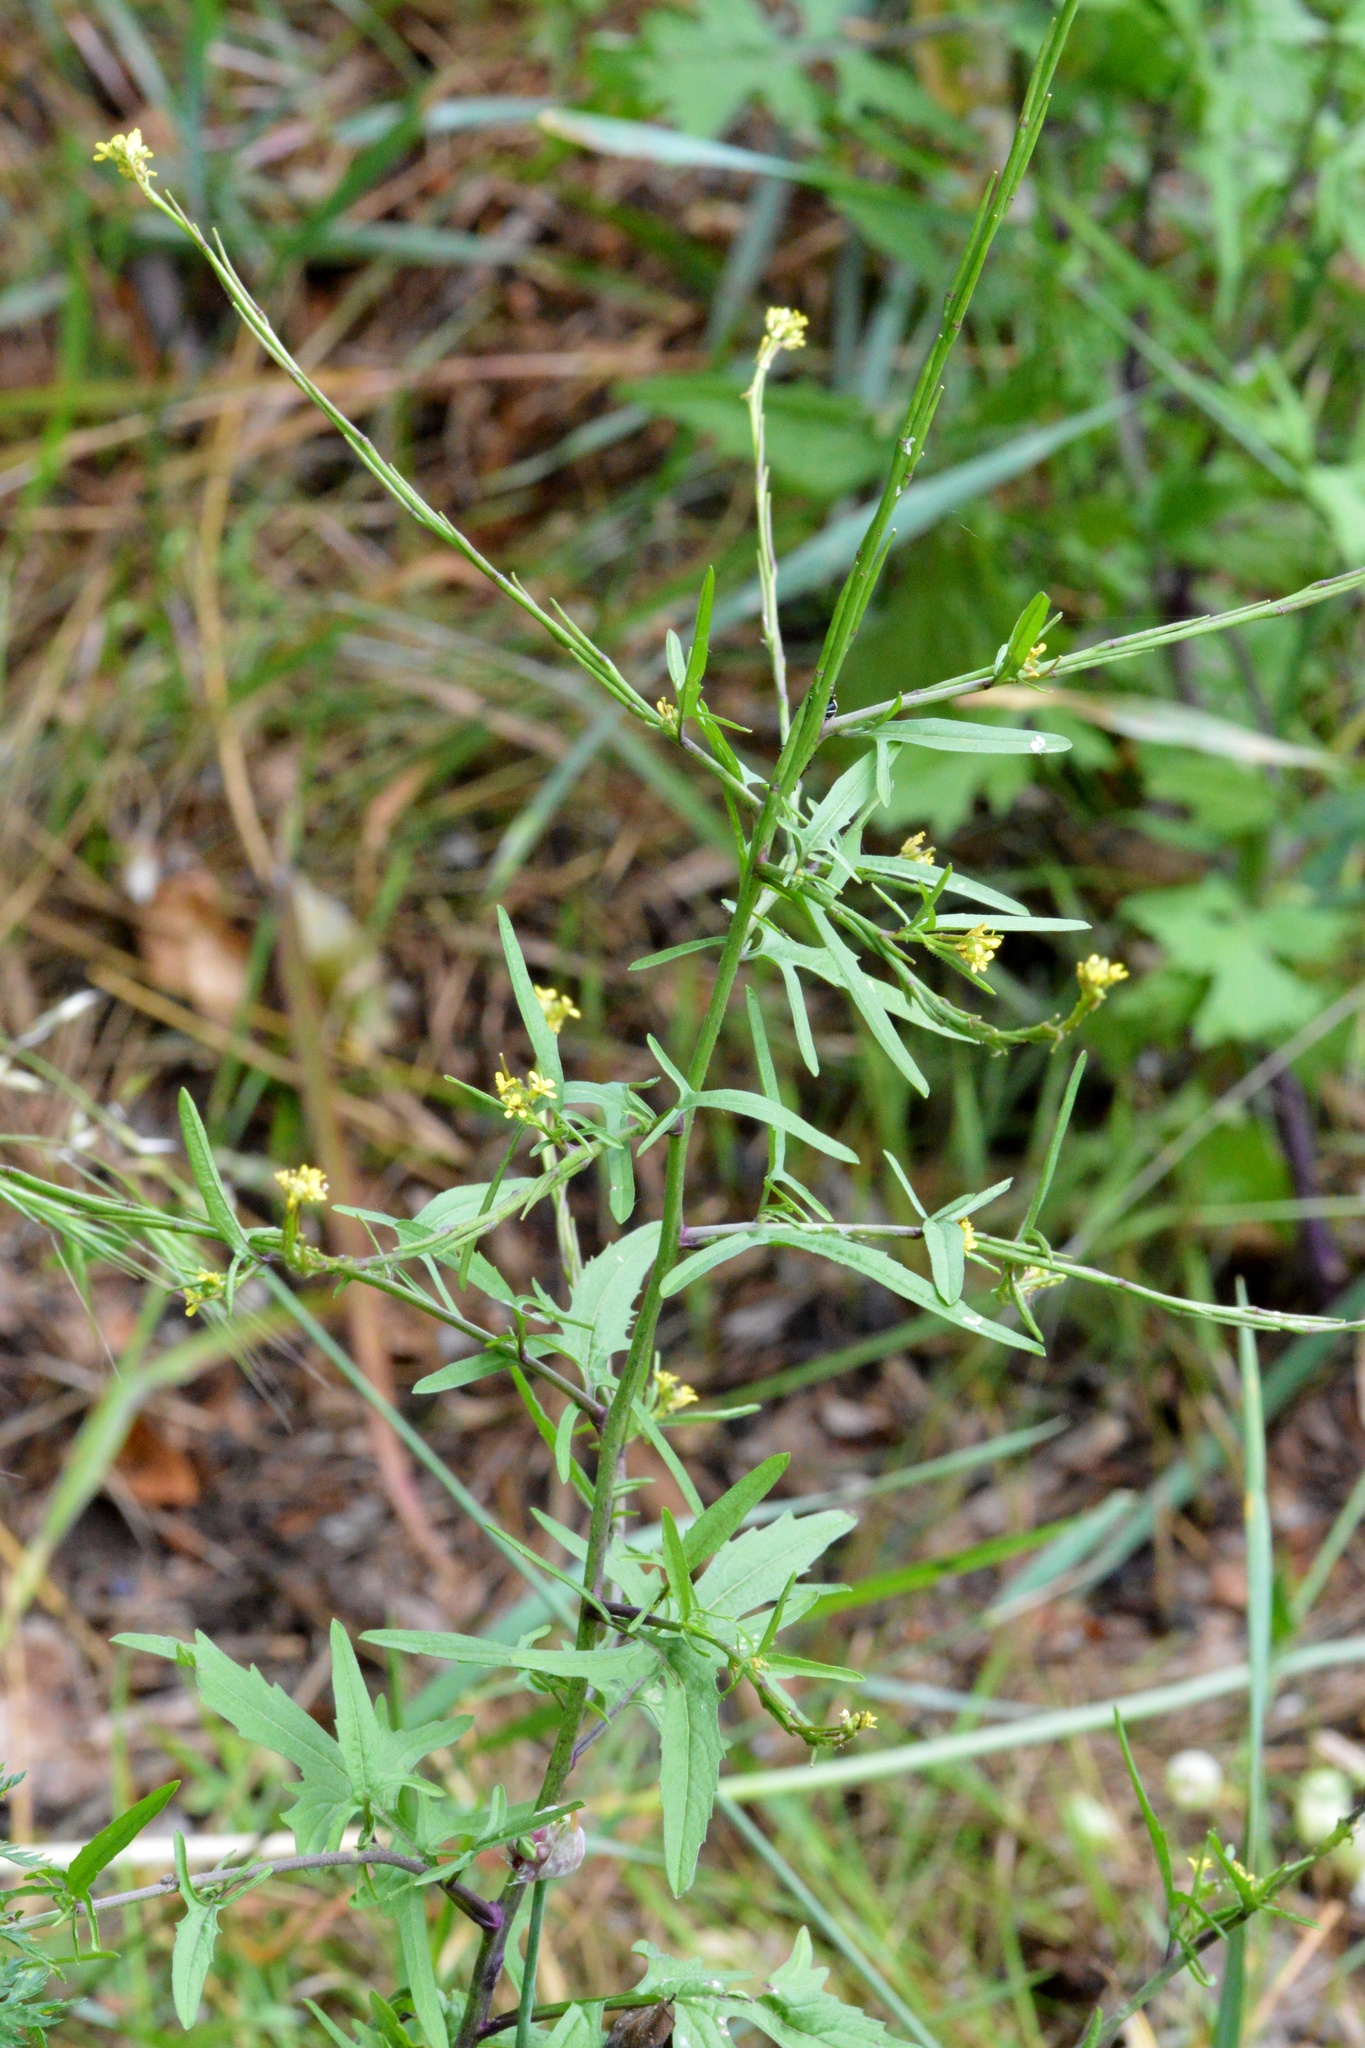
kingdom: Plantae
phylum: Tracheophyta
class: Magnoliopsida
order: Brassicales
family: Brassicaceae
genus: Sisymbrium
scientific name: Sisymbrium officinale
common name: Hedge mustard
